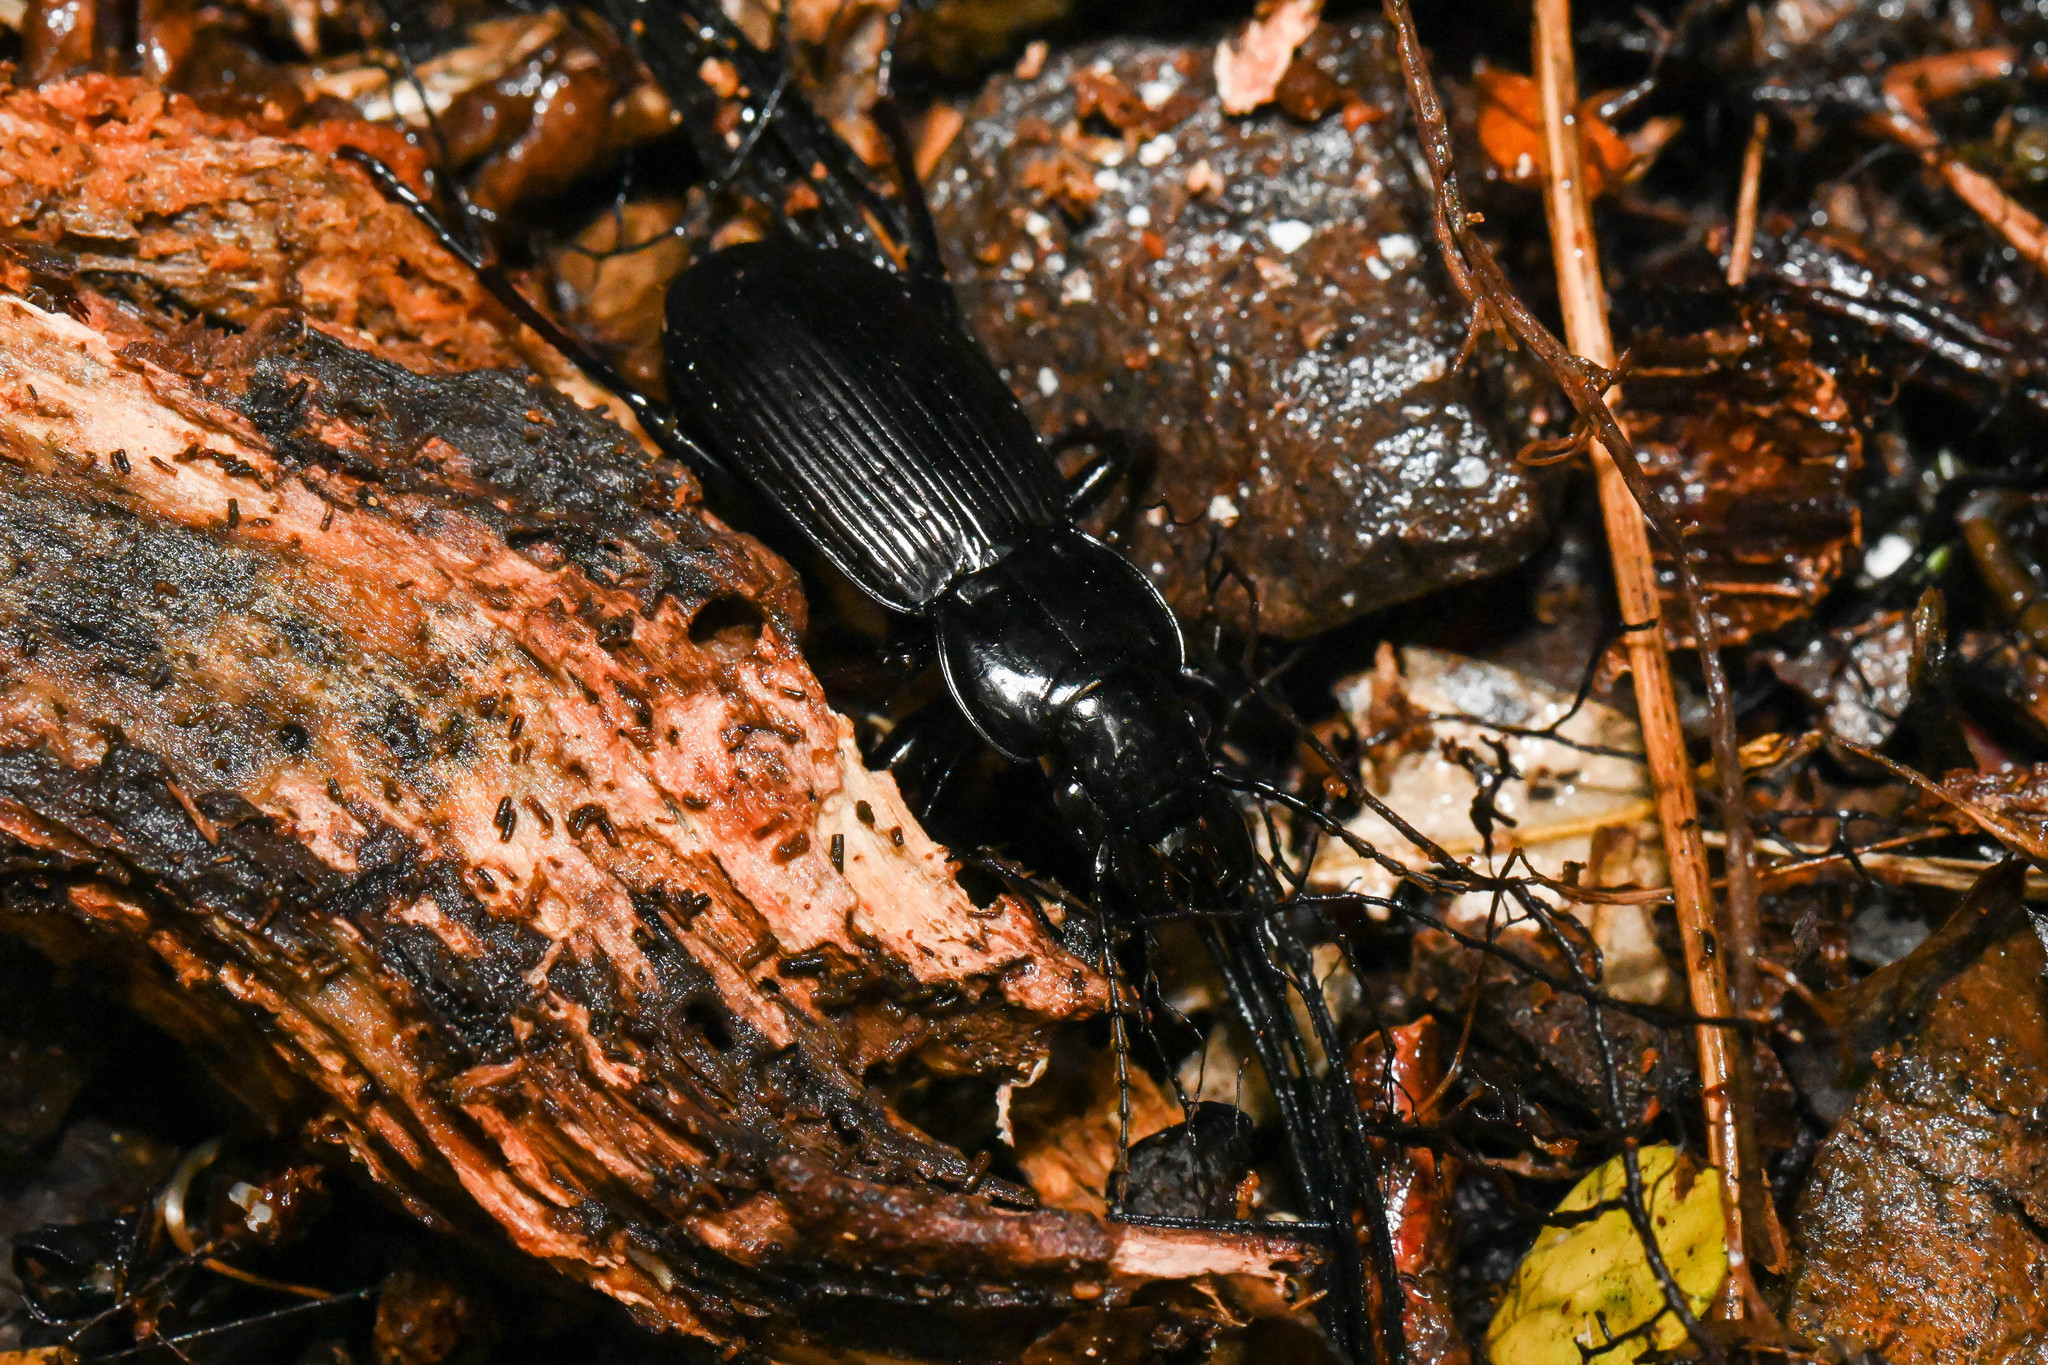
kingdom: Animalia
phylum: Arthropoda
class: Insecta
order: Coleoptera
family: Carabidae
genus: Megadromus
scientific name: Megadromus sandageri
